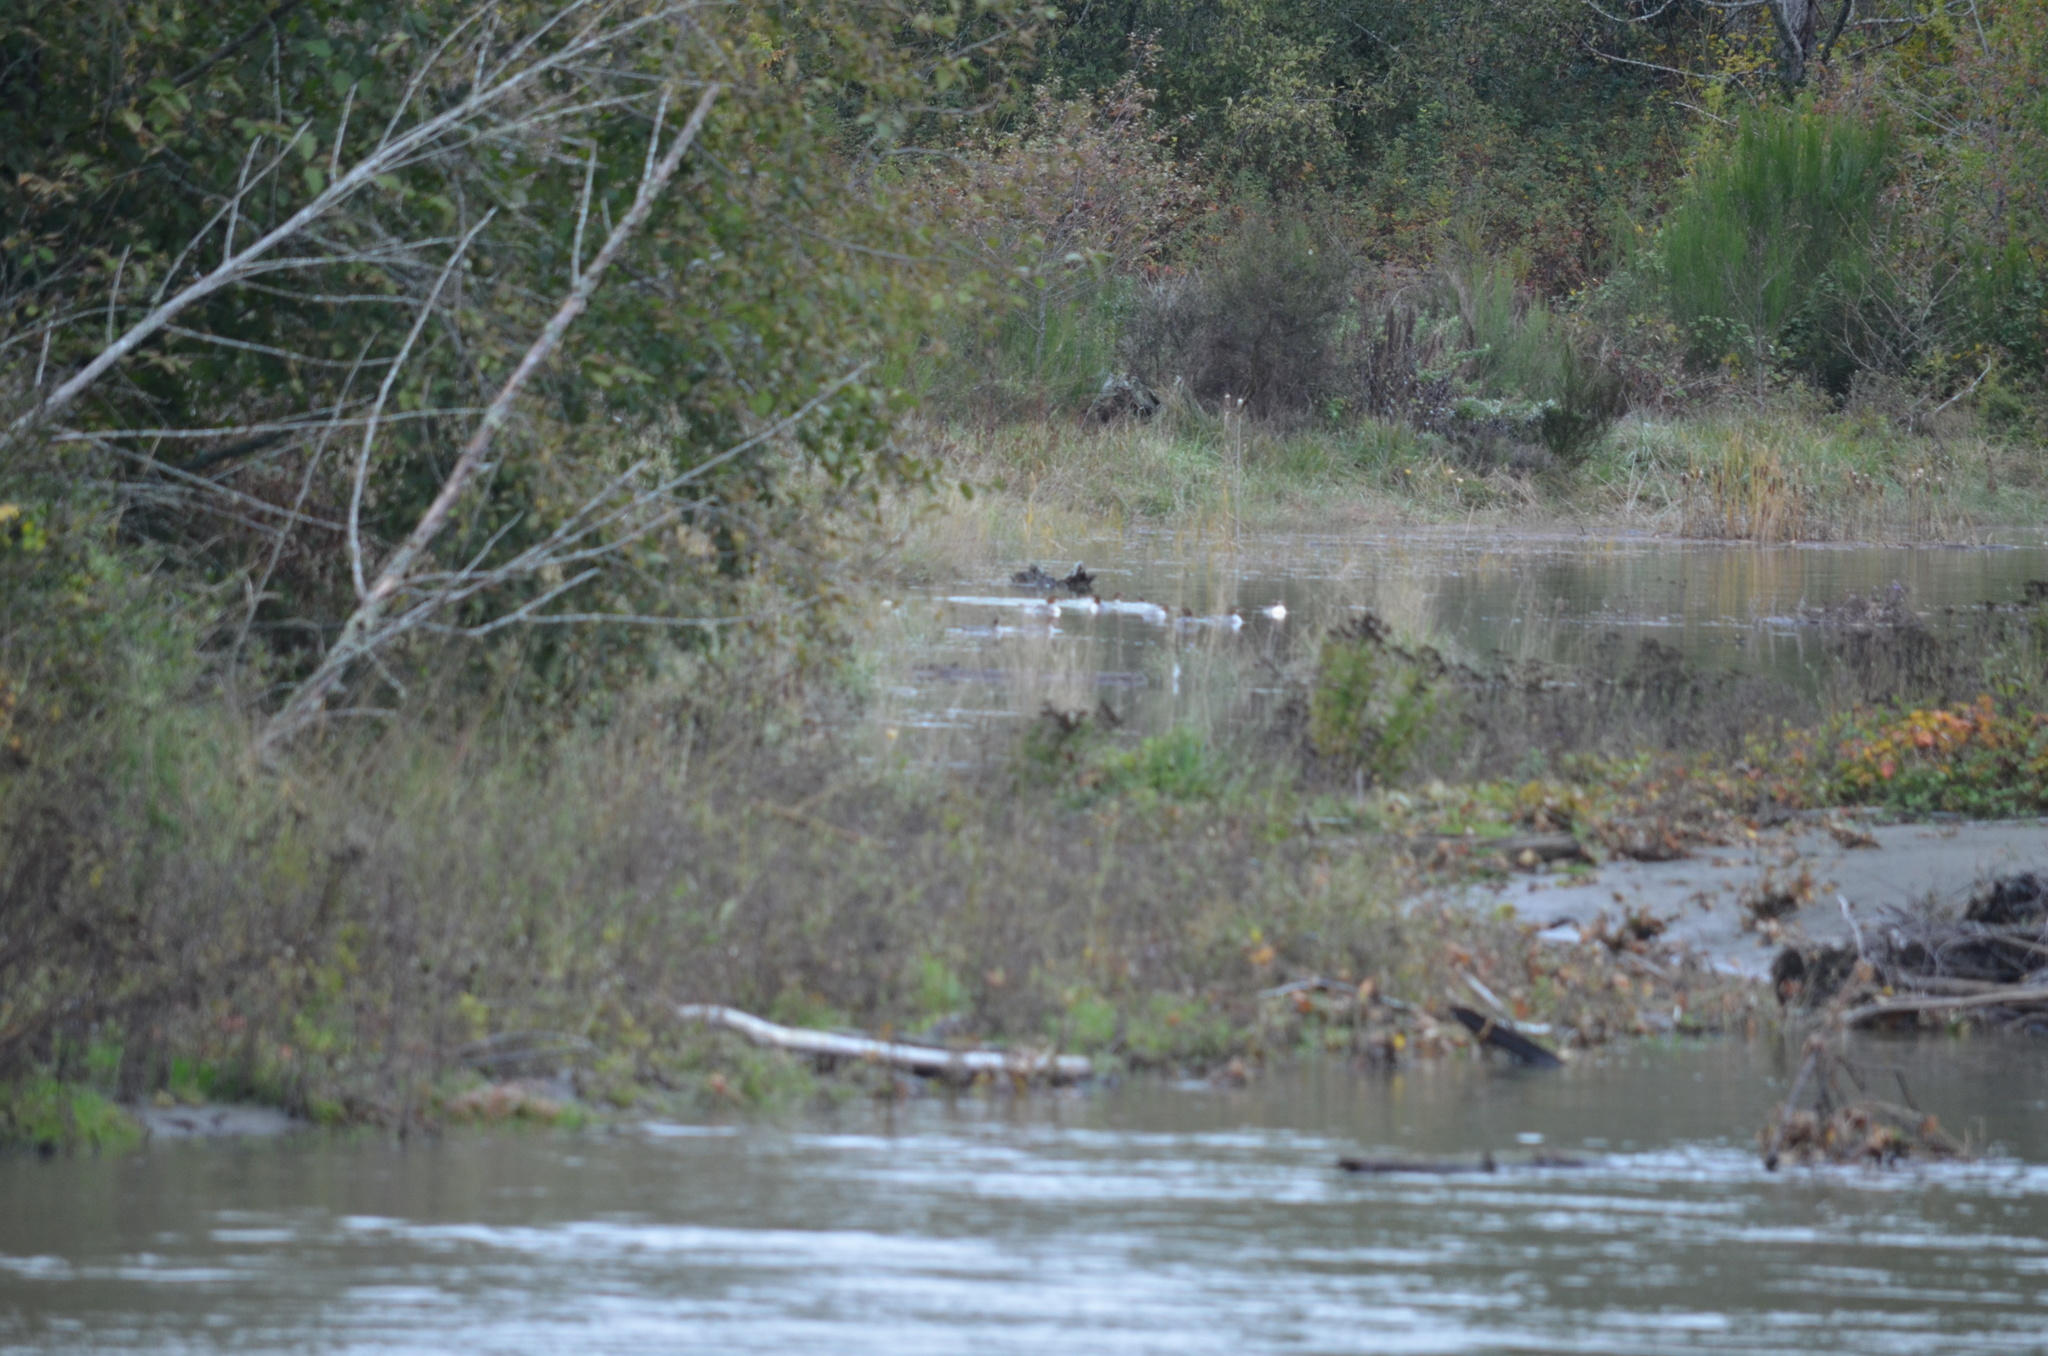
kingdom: Animalia
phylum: Chordata
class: Aves
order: Anseriformes
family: Anatidae
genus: Mergus
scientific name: Mergus merganser
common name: Common merganser
